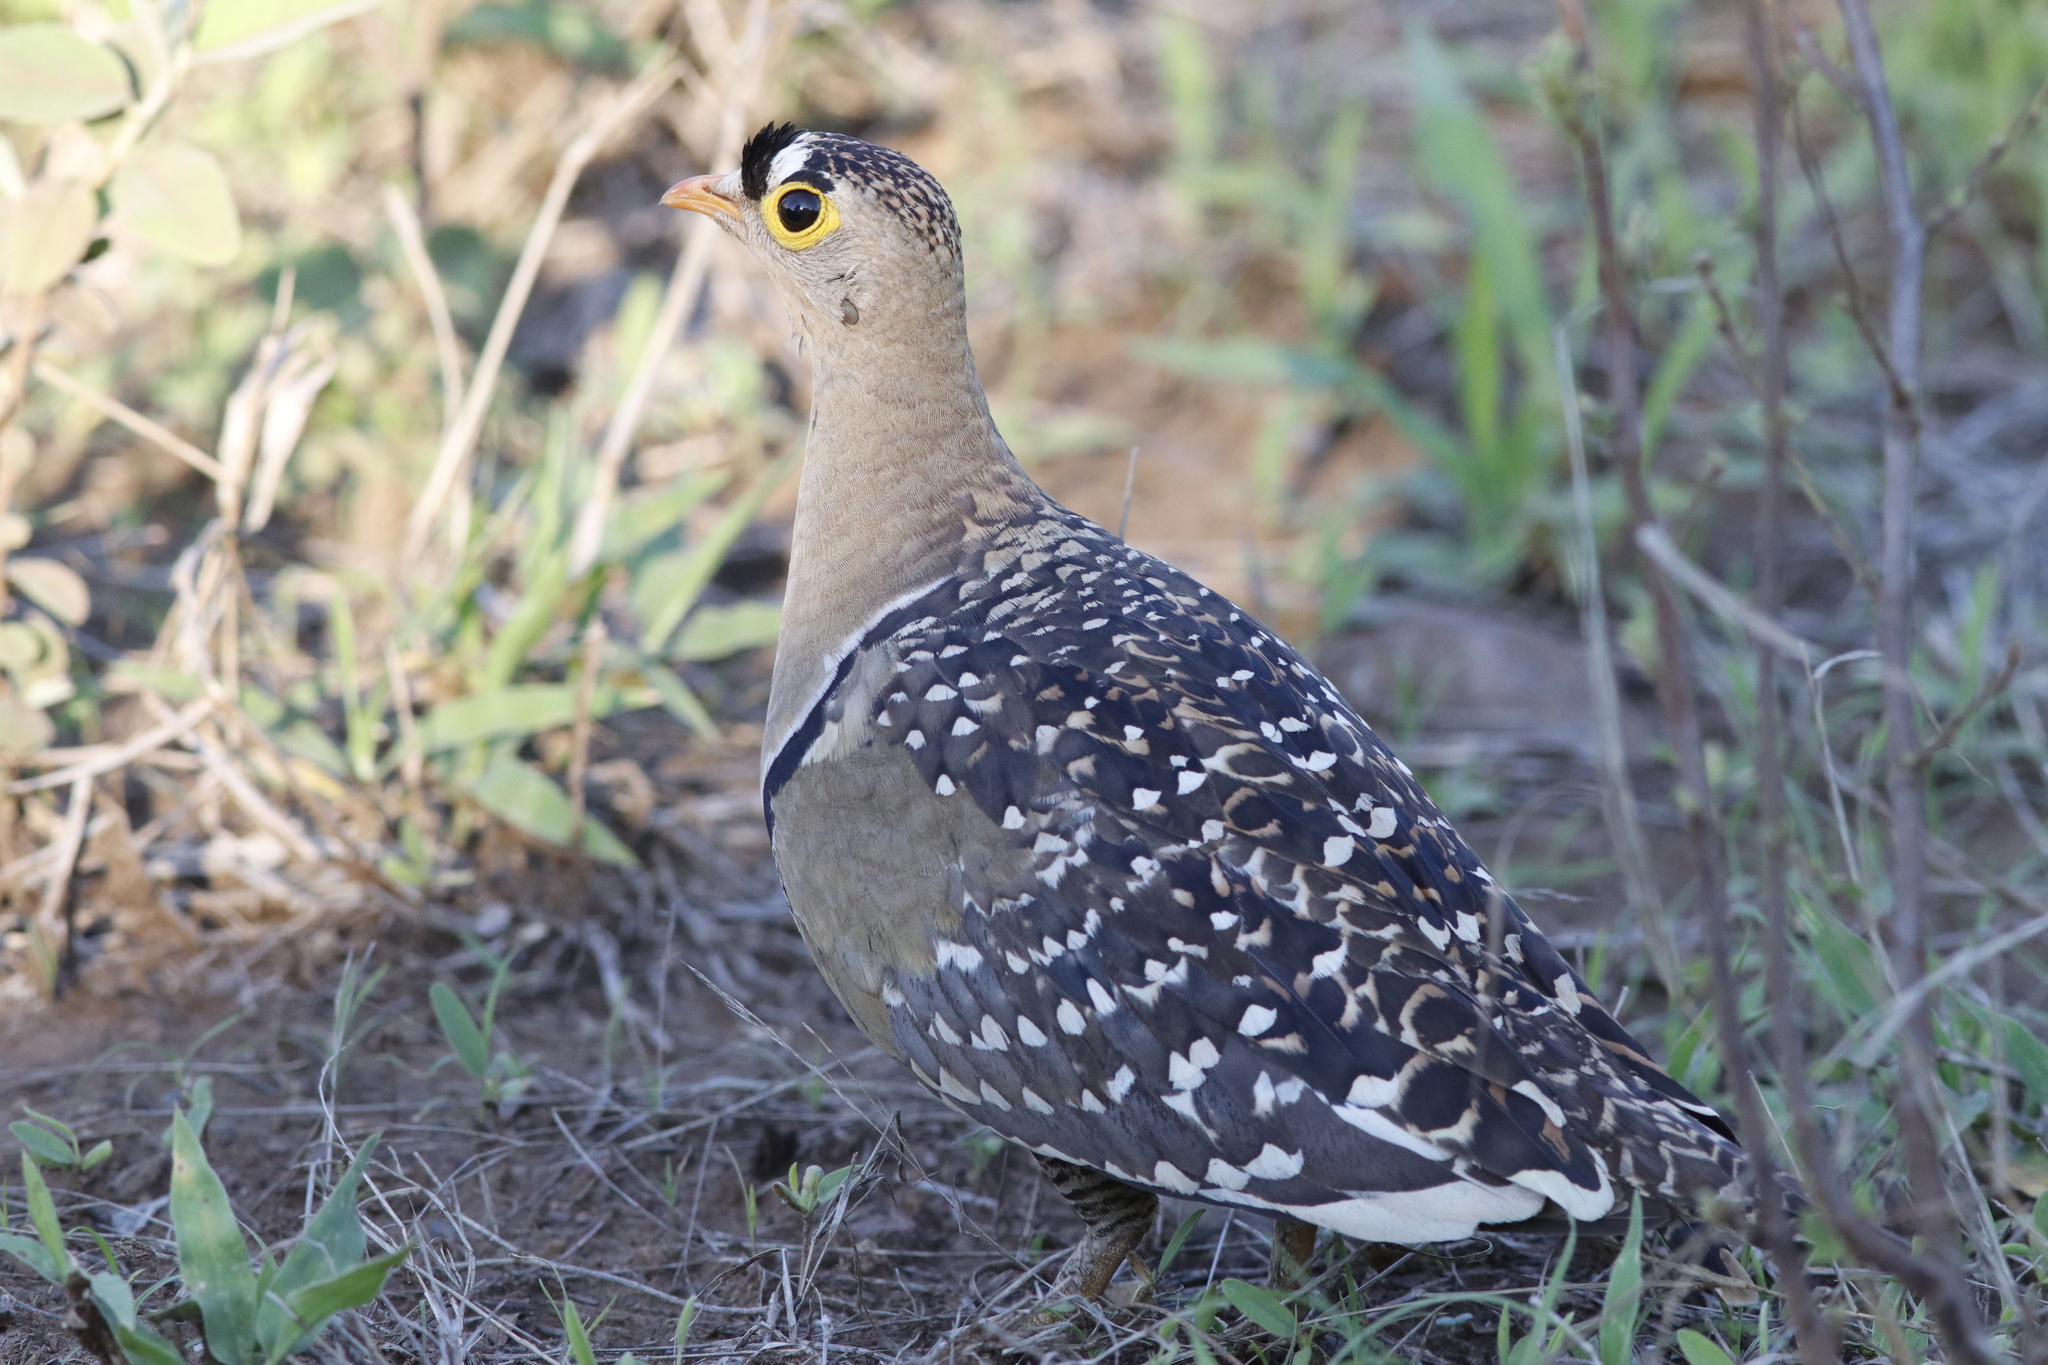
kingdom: Animalia
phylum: Chordata
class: Aves
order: Pteroclidiformes
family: Pteroclididae
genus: Pterocles
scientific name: Pterocles bicinctus
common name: Double-banded sandgrouse
